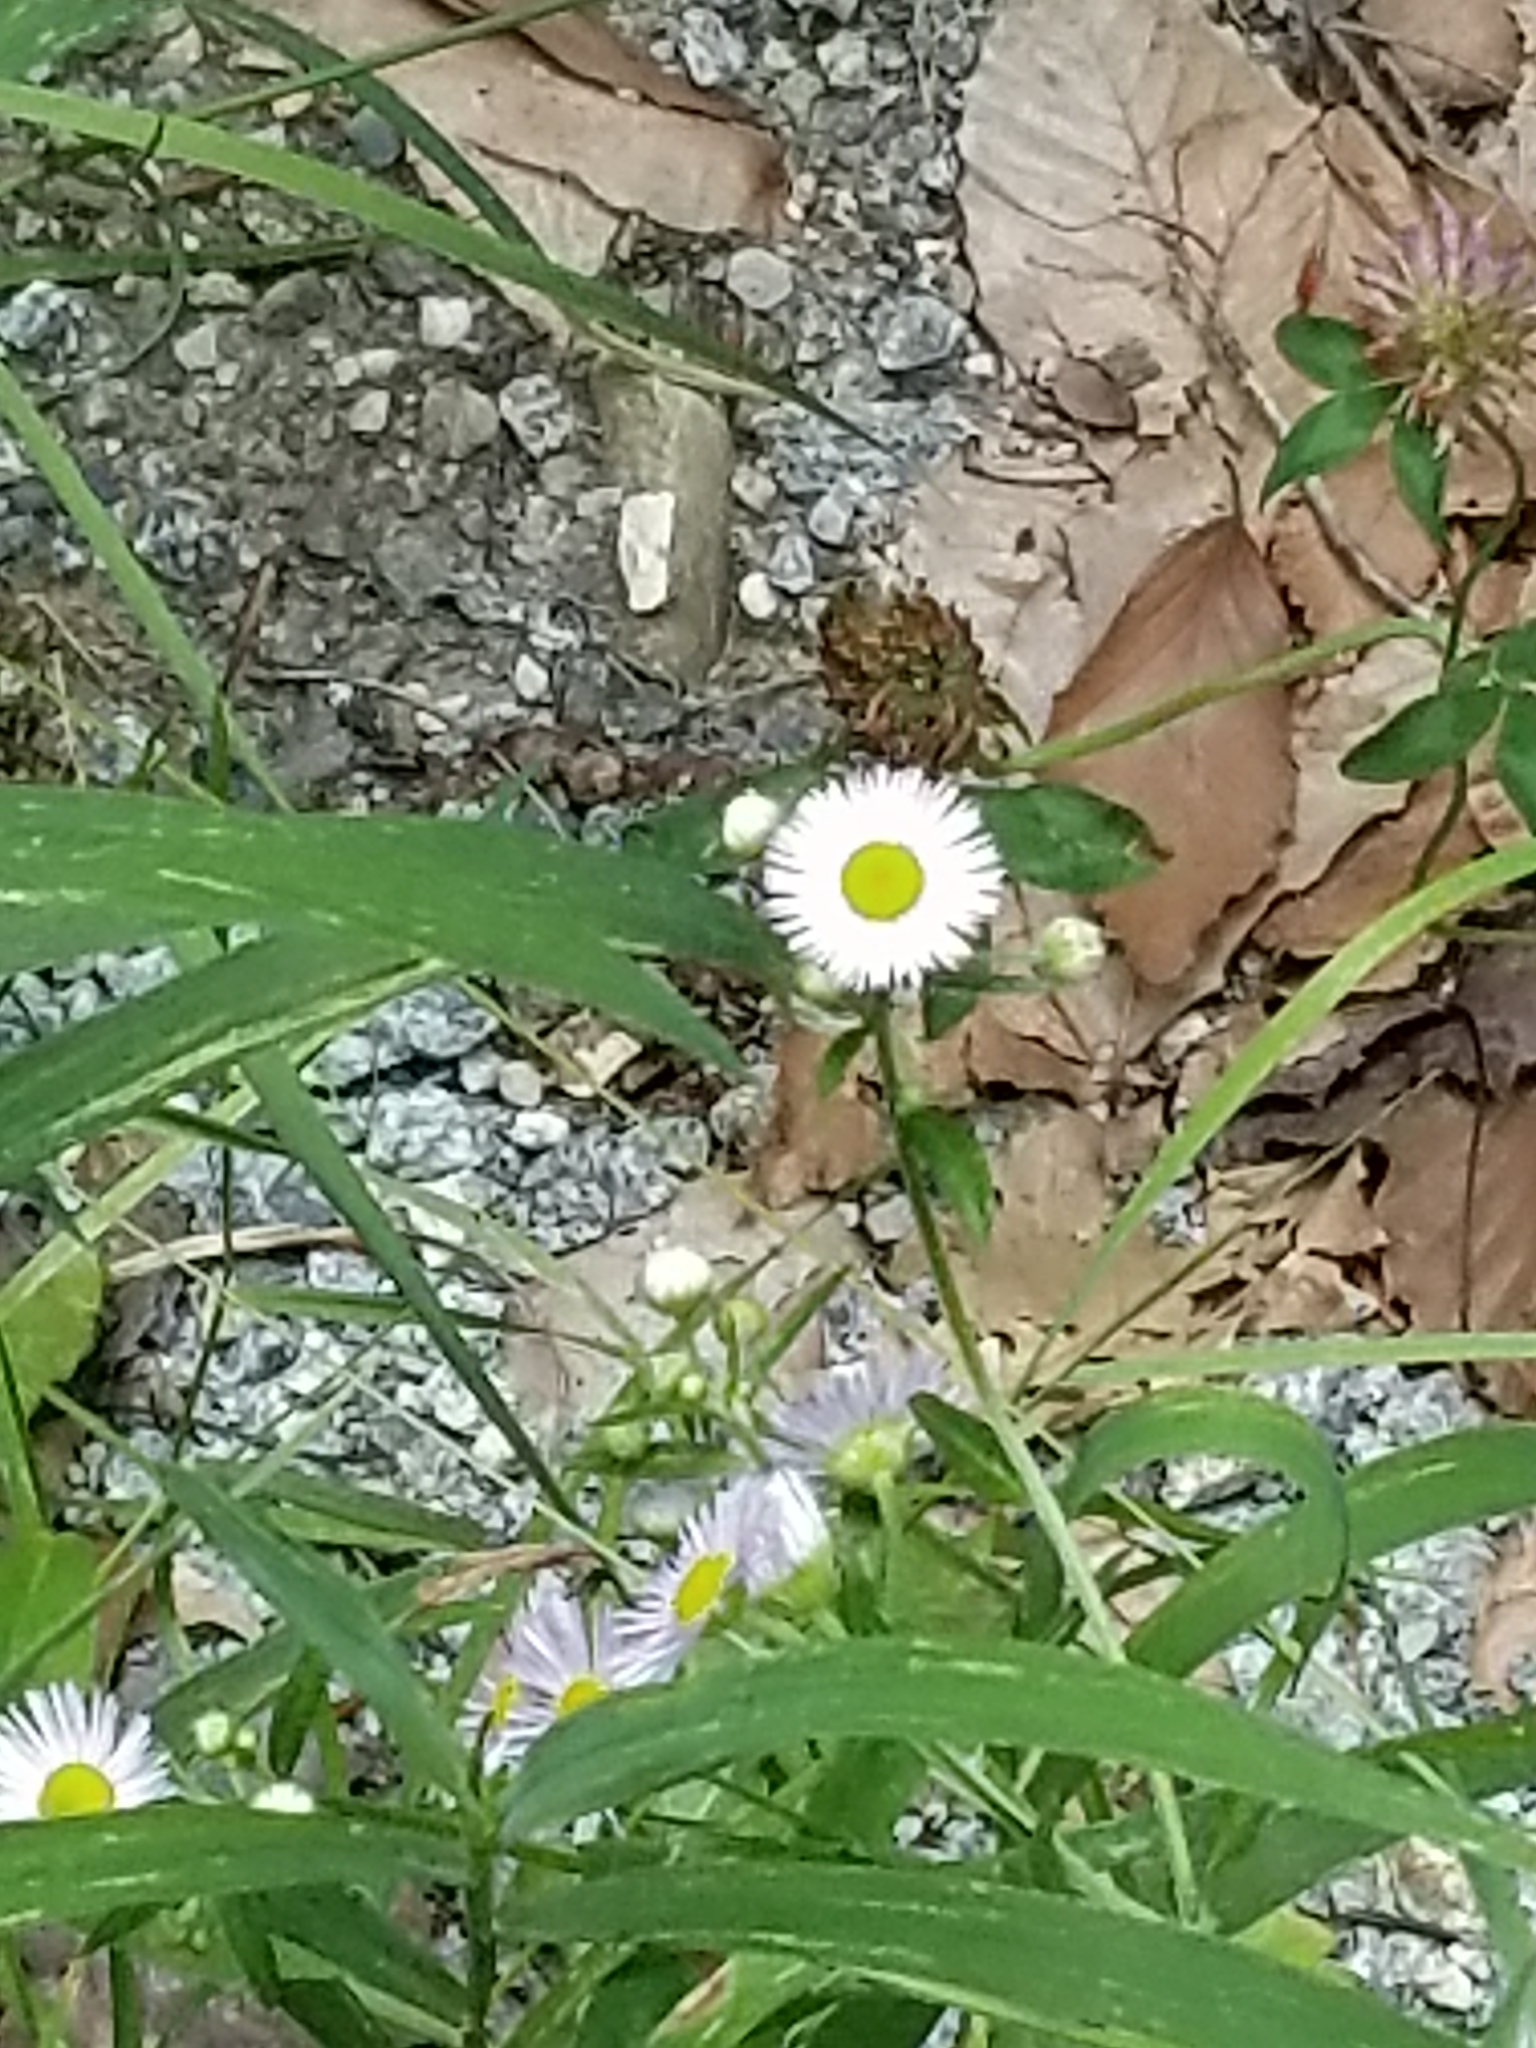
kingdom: Fungi
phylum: Basidiomycota
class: Agaricomycetes
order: Agaricales
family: Lycoperdaceae
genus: Apioperdon
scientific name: Apioperdon pyriforme
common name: Pear-shaped puffball
